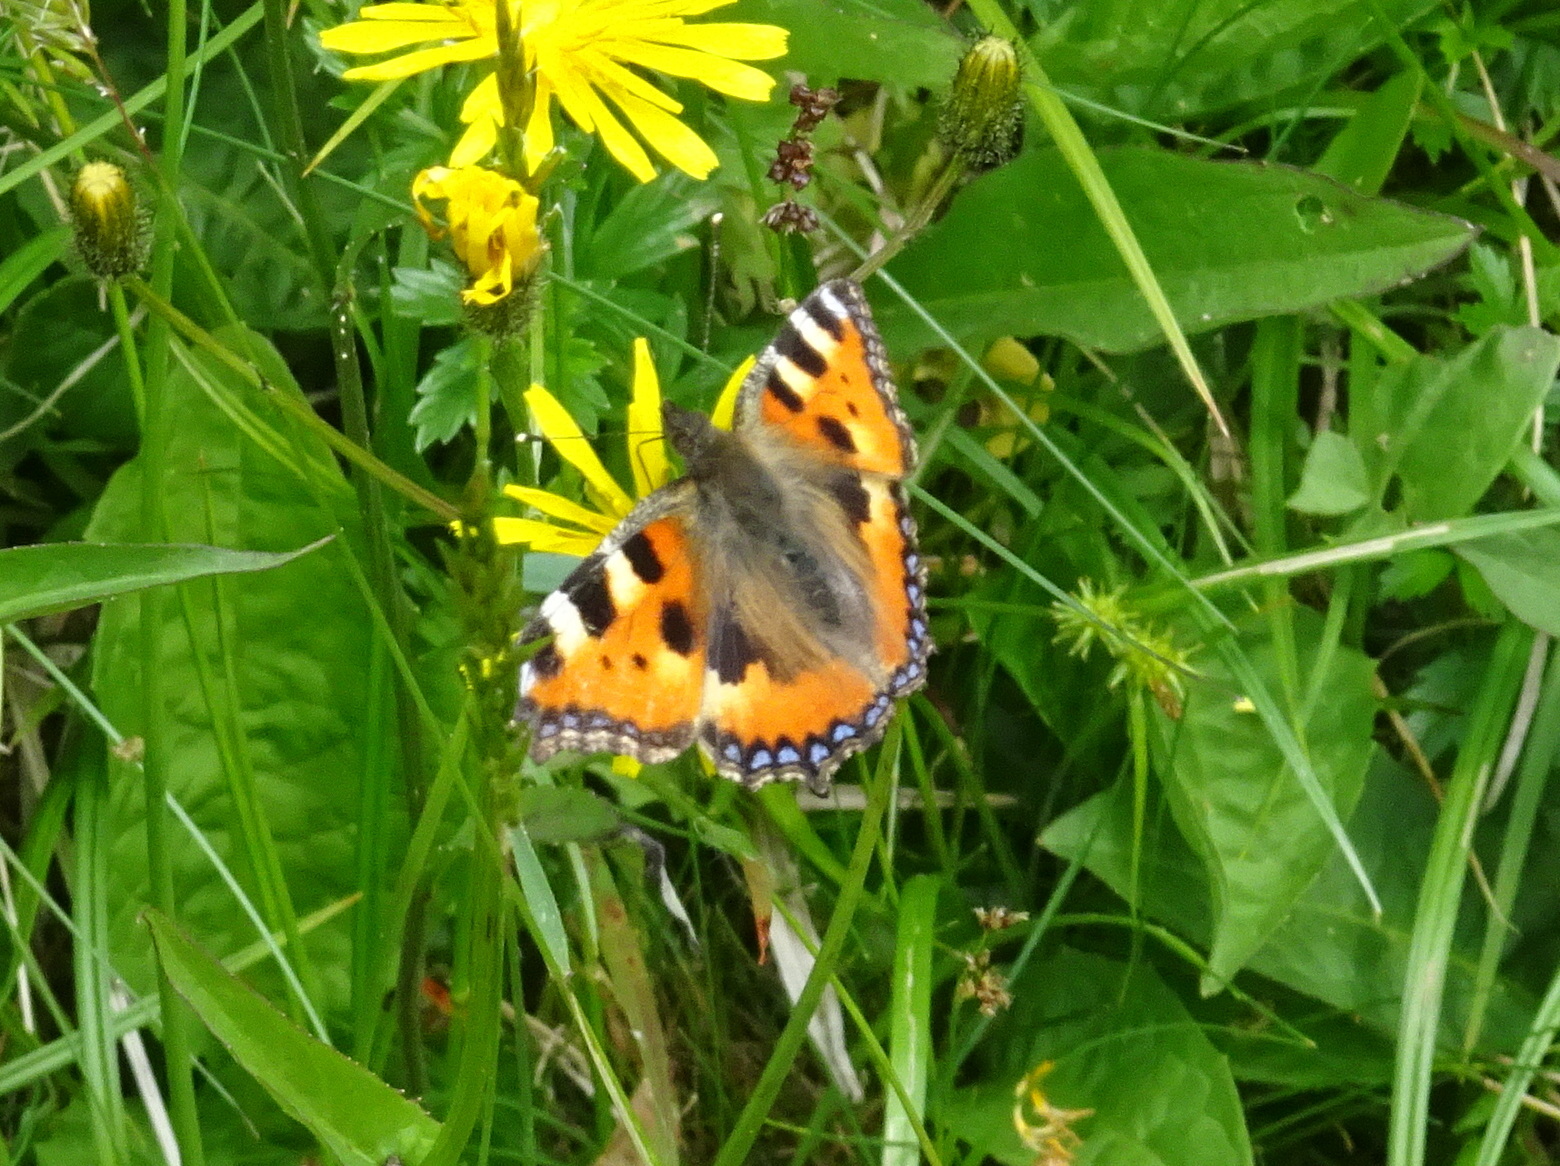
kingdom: Animalia
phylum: Arthropoda
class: Insecta
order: Lepidoptera
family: Nymphalidae
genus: Aglais
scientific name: Aglais urticae
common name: Small tortoiseshell
